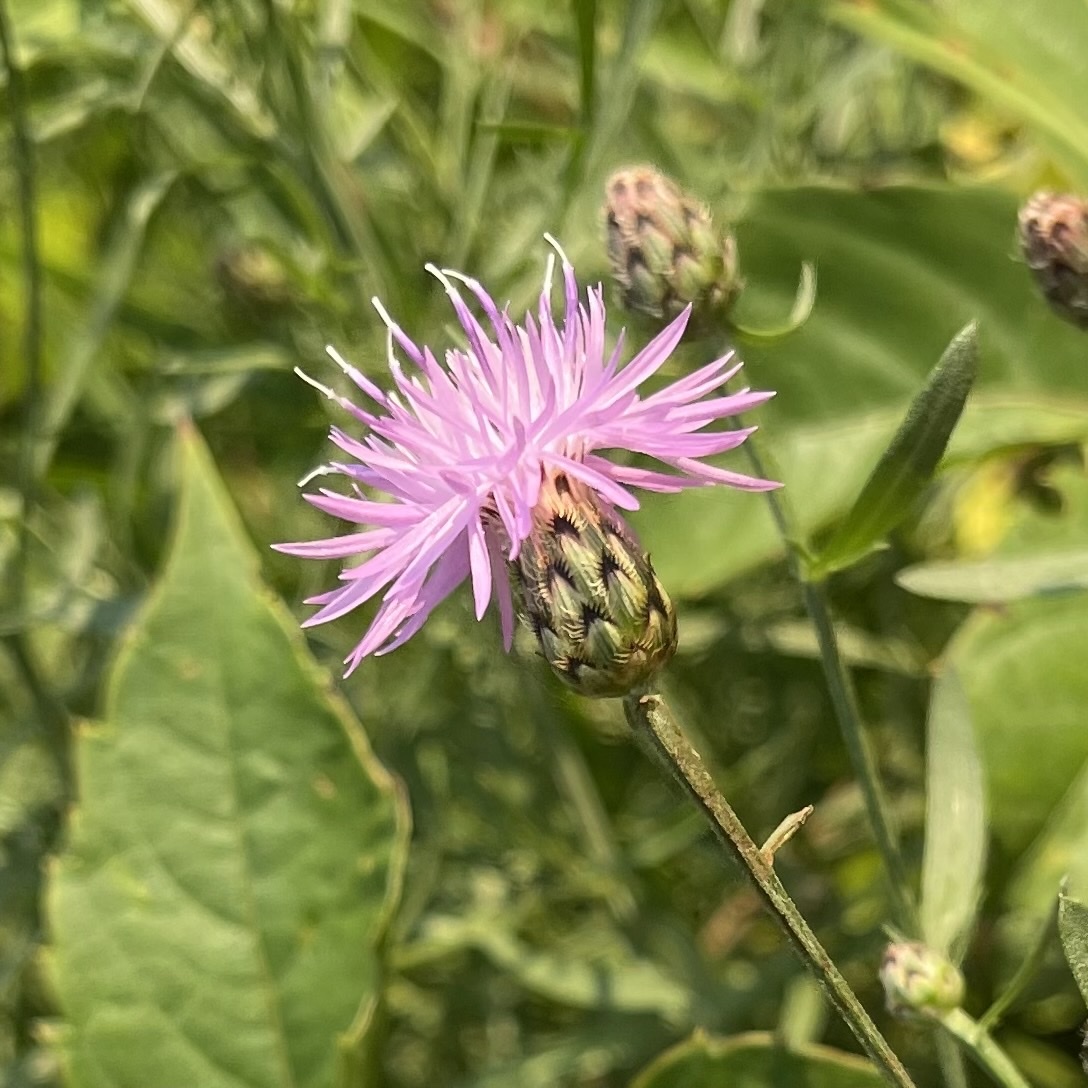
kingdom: Plantae
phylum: Tracheophyta
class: Magnoliopsida
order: Asterales
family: Asteraceae
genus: Centaurea
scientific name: Centaurea stoebe
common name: Spotted knapweed
